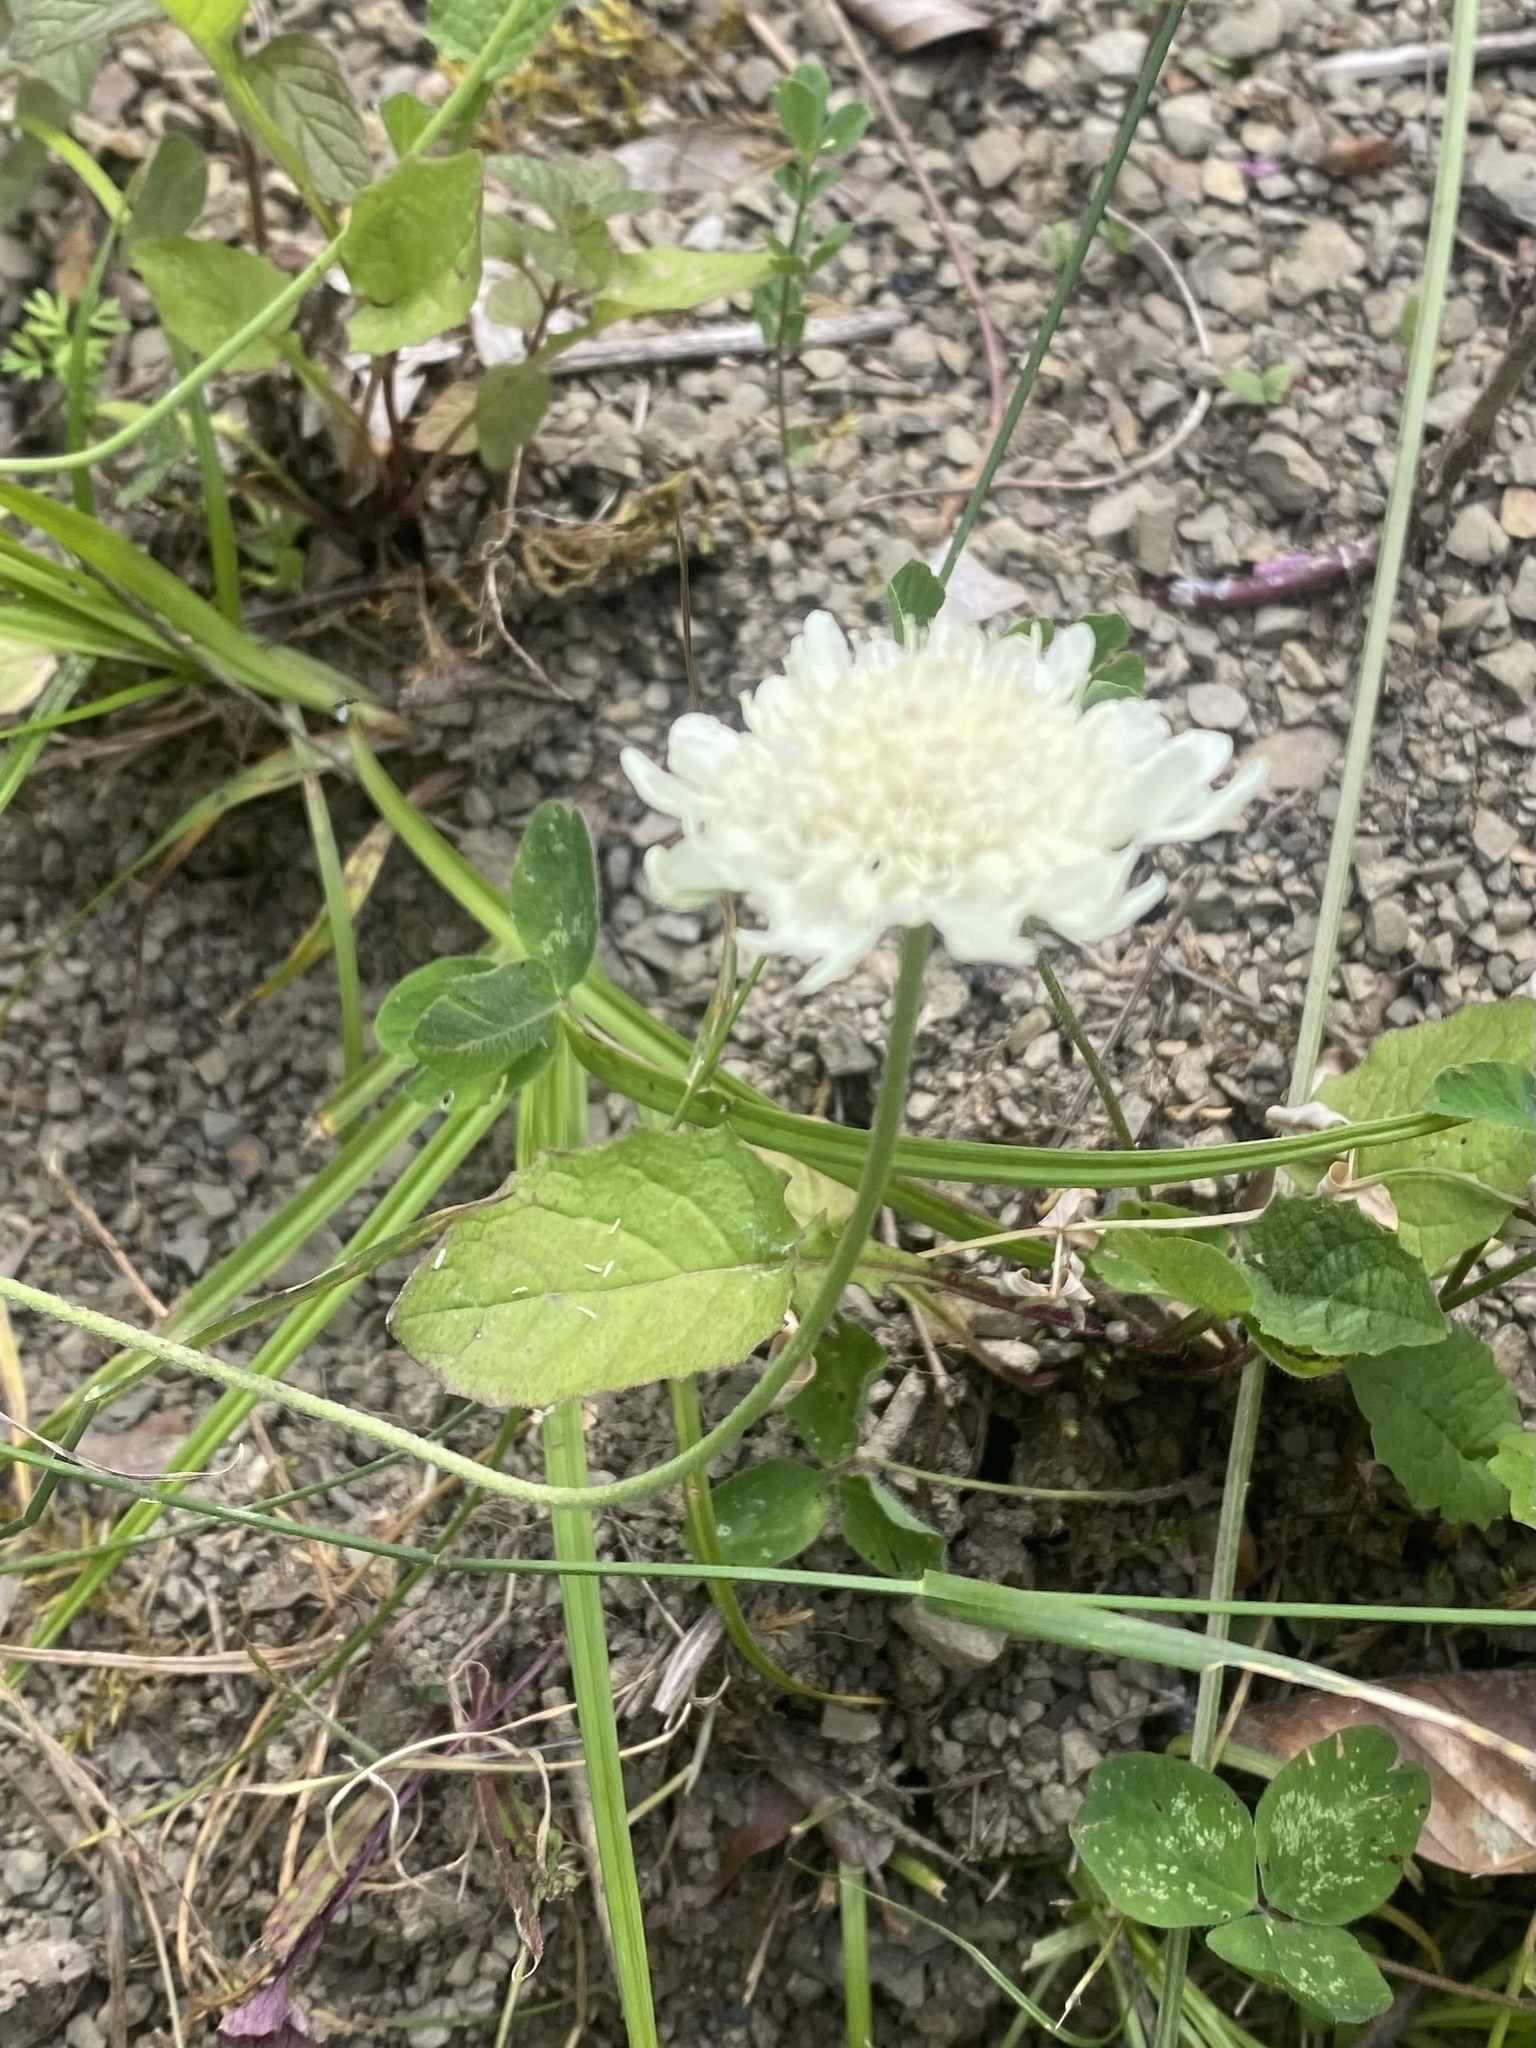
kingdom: Plantae
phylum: Tracheophyta
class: Magnoliopsida
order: Dipsacales
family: Caprifoliaceae
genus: Scabiosa
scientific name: Scabiosa ochroleuca
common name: Cream pincushions
